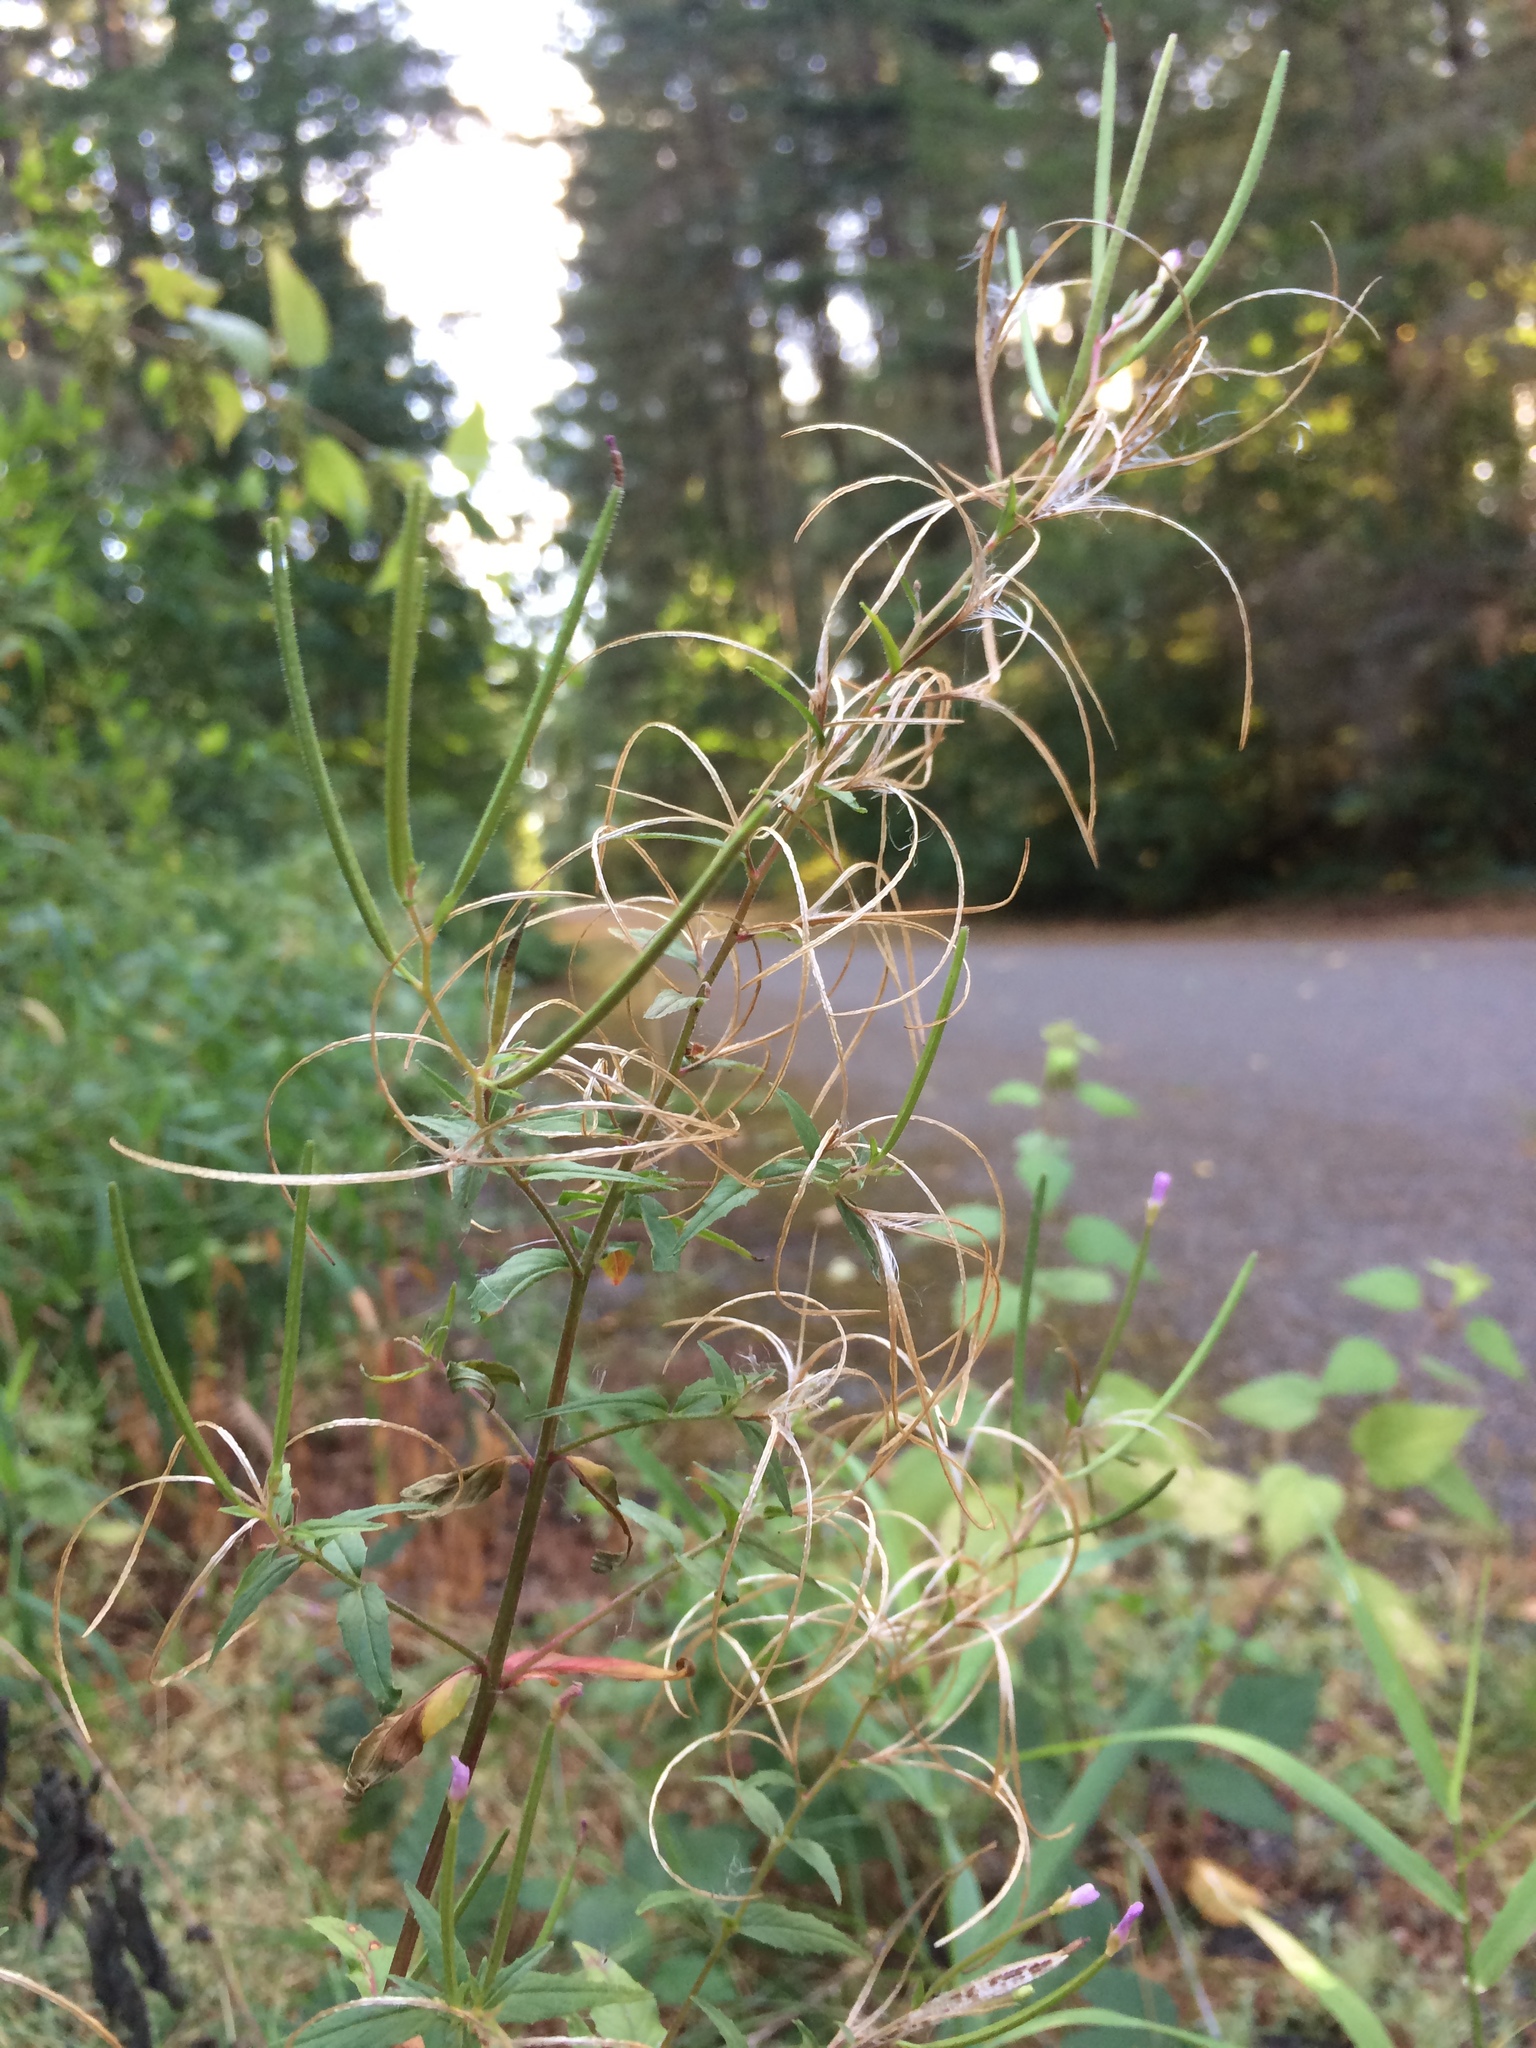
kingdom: Plantae
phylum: Tracheophyta
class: Magnoliopsida
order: Myrtales
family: Onagraceae
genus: Epilobium
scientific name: Epilobium ciliatum
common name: American willowherb
